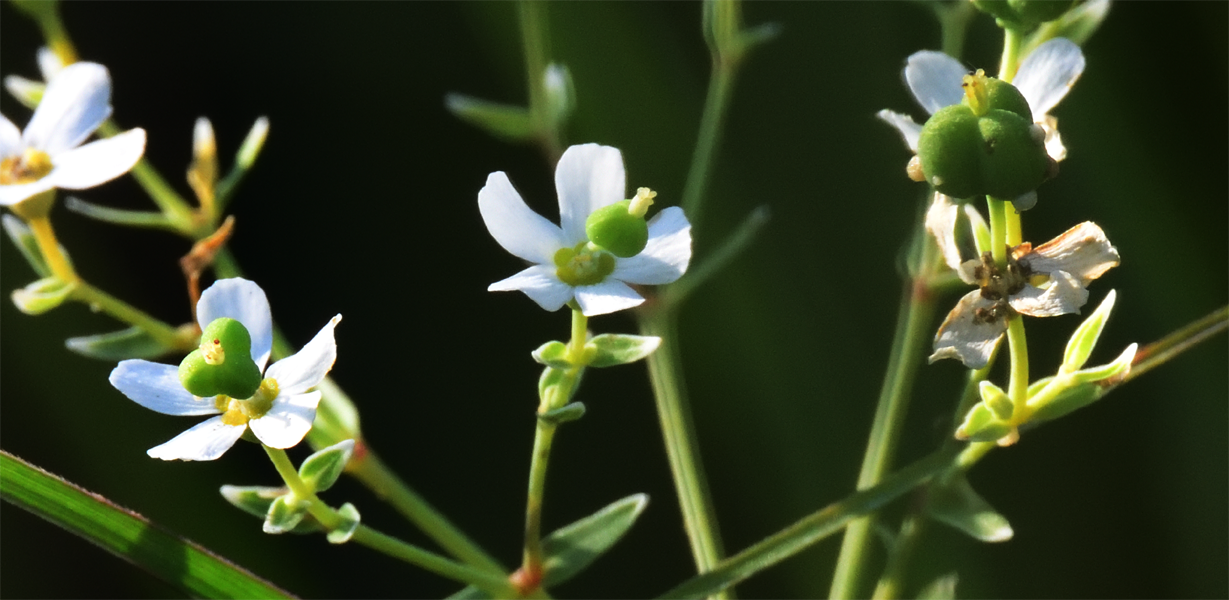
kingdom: Plantae
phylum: Tracheophyta
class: Magnoliopsida
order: Malpighiales
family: Euphorbiaceae
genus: Euphorbia
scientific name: Euphorbia corollata
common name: Flowering spurge
